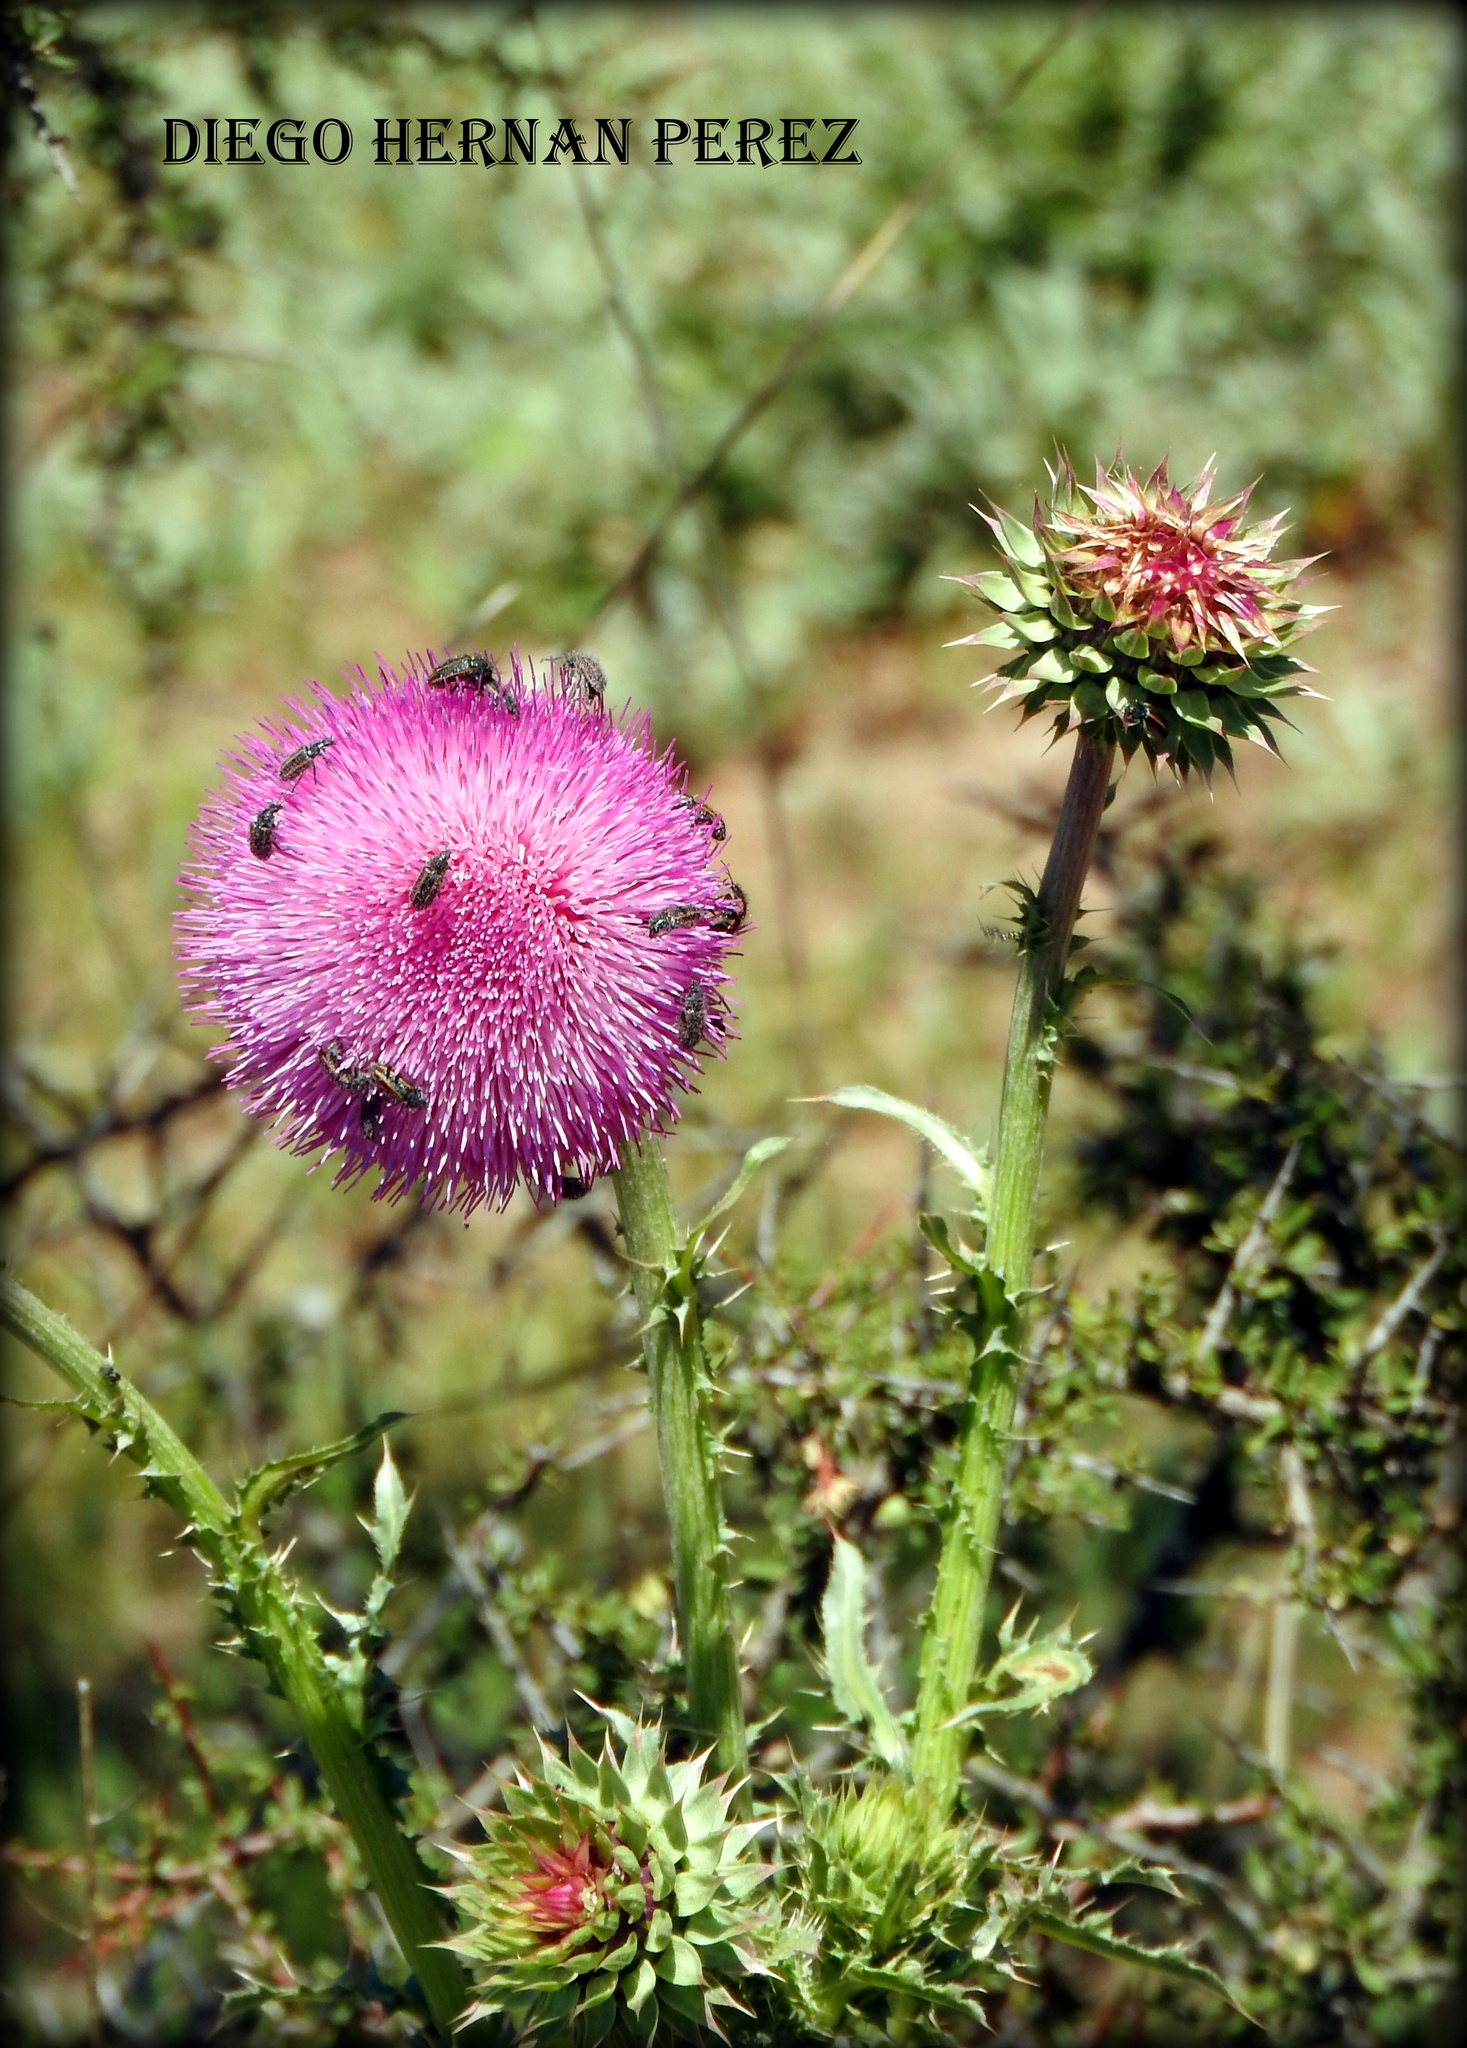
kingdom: Animalia
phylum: Arthropoda
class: Insecta
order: Coleoptera
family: Melyridae
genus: Astylus
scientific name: Astylus
